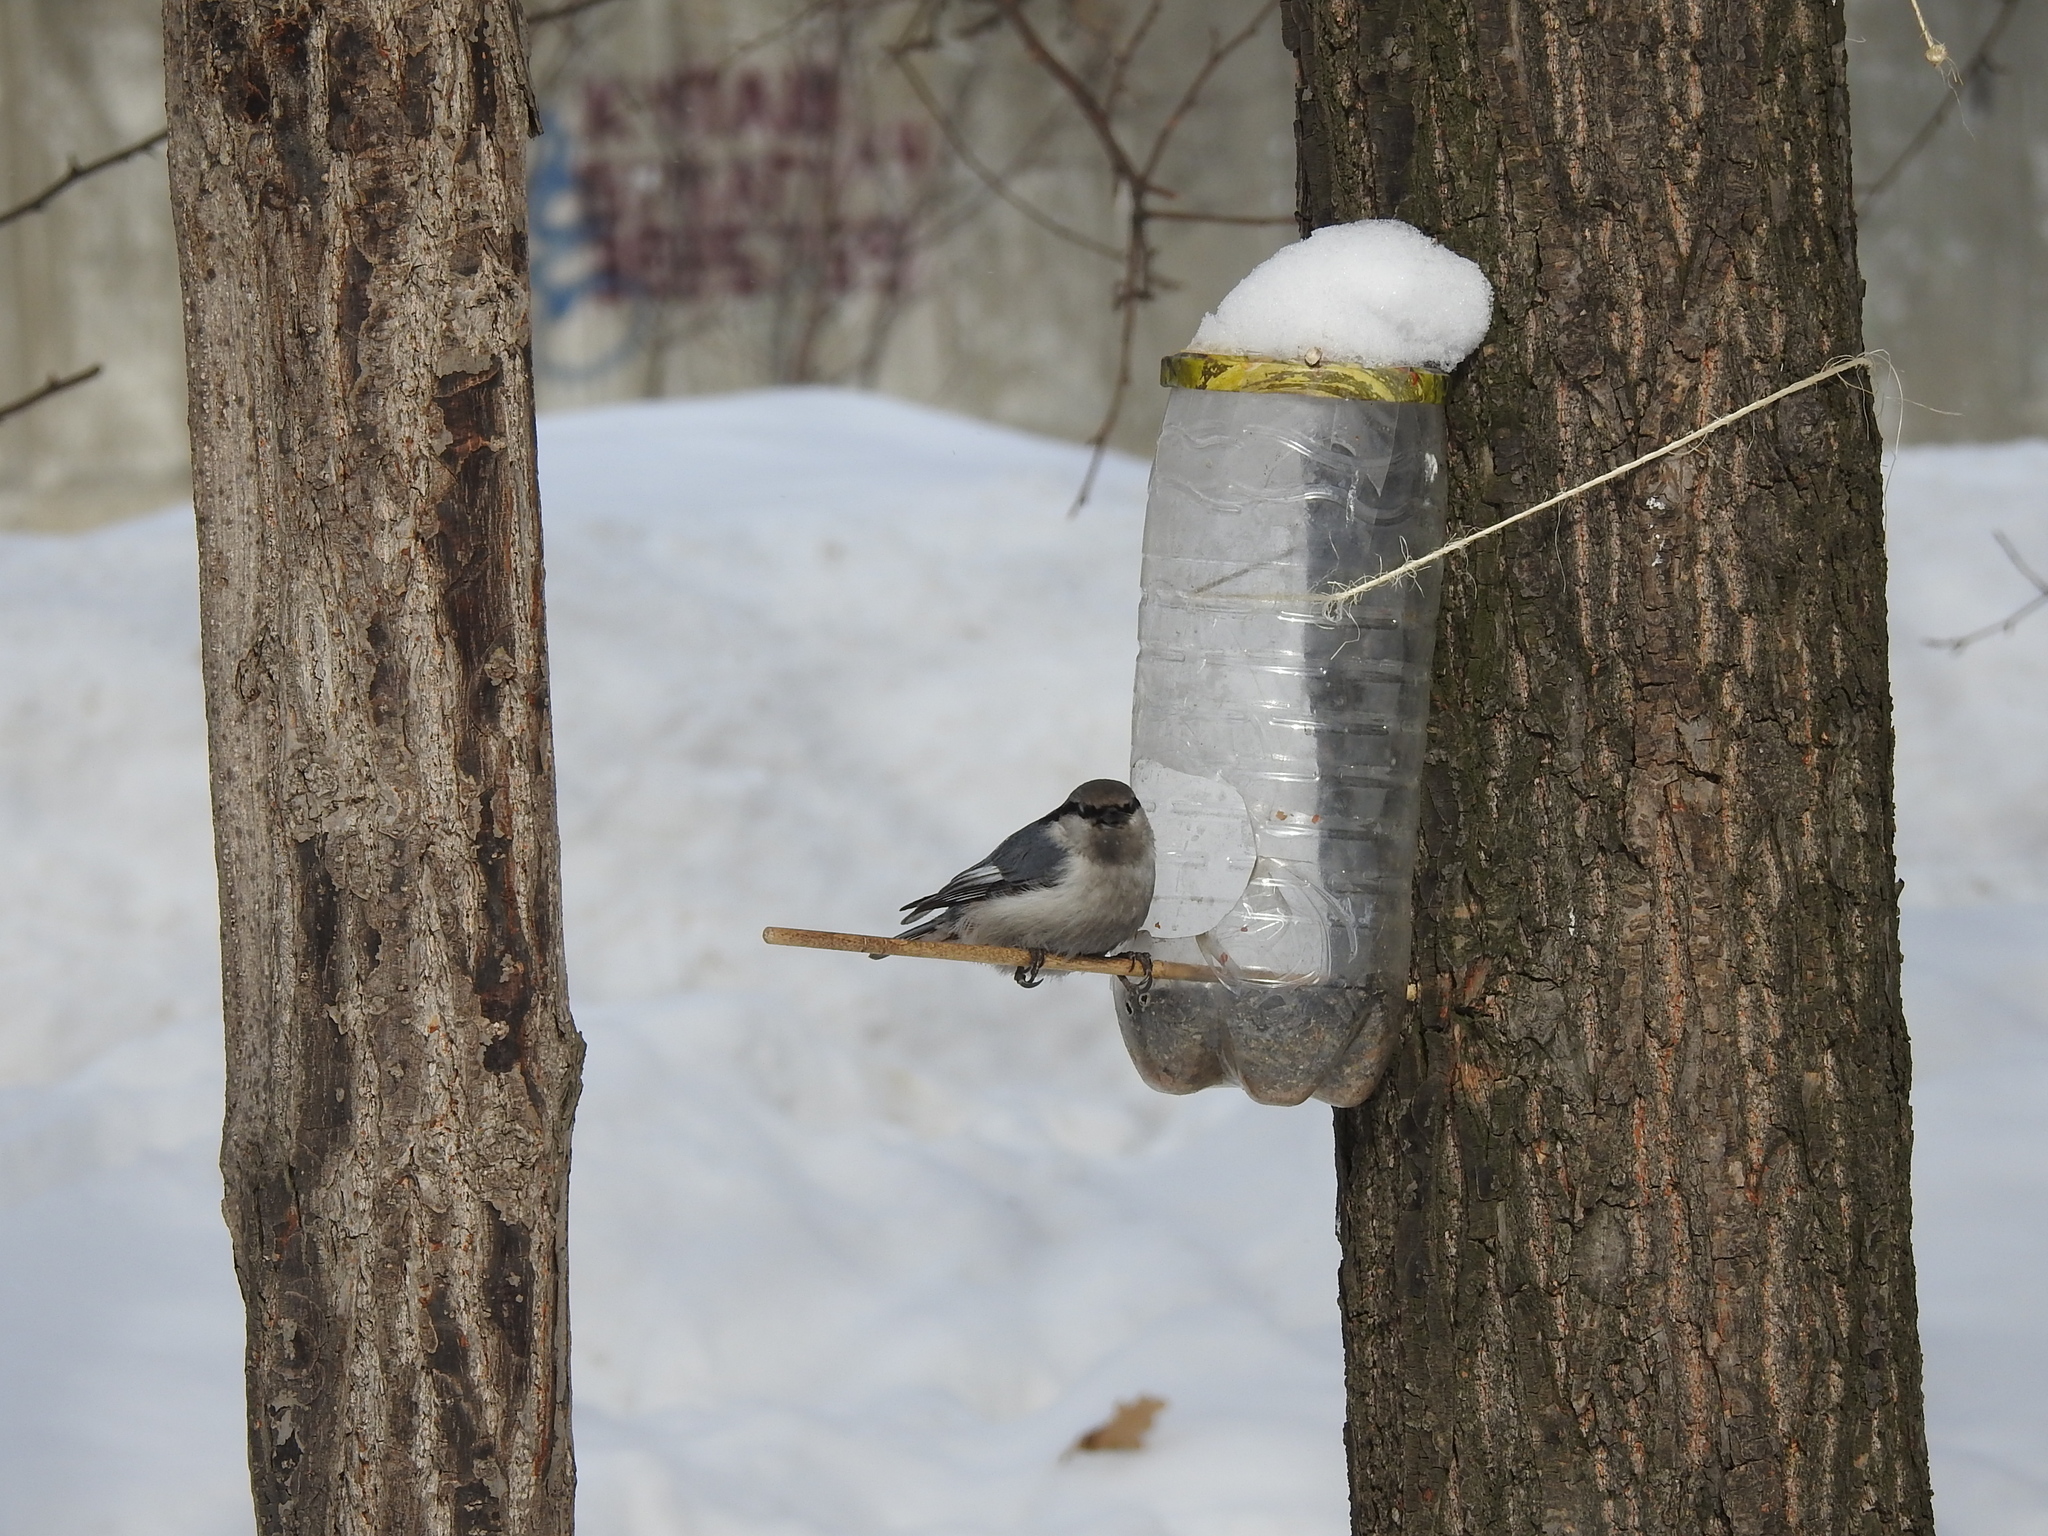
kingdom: Animalia
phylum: Chordata
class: Aves
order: Passeriformes
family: Sittidae
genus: Sitta
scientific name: Sitta europaea
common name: Eurasian nuthatch
